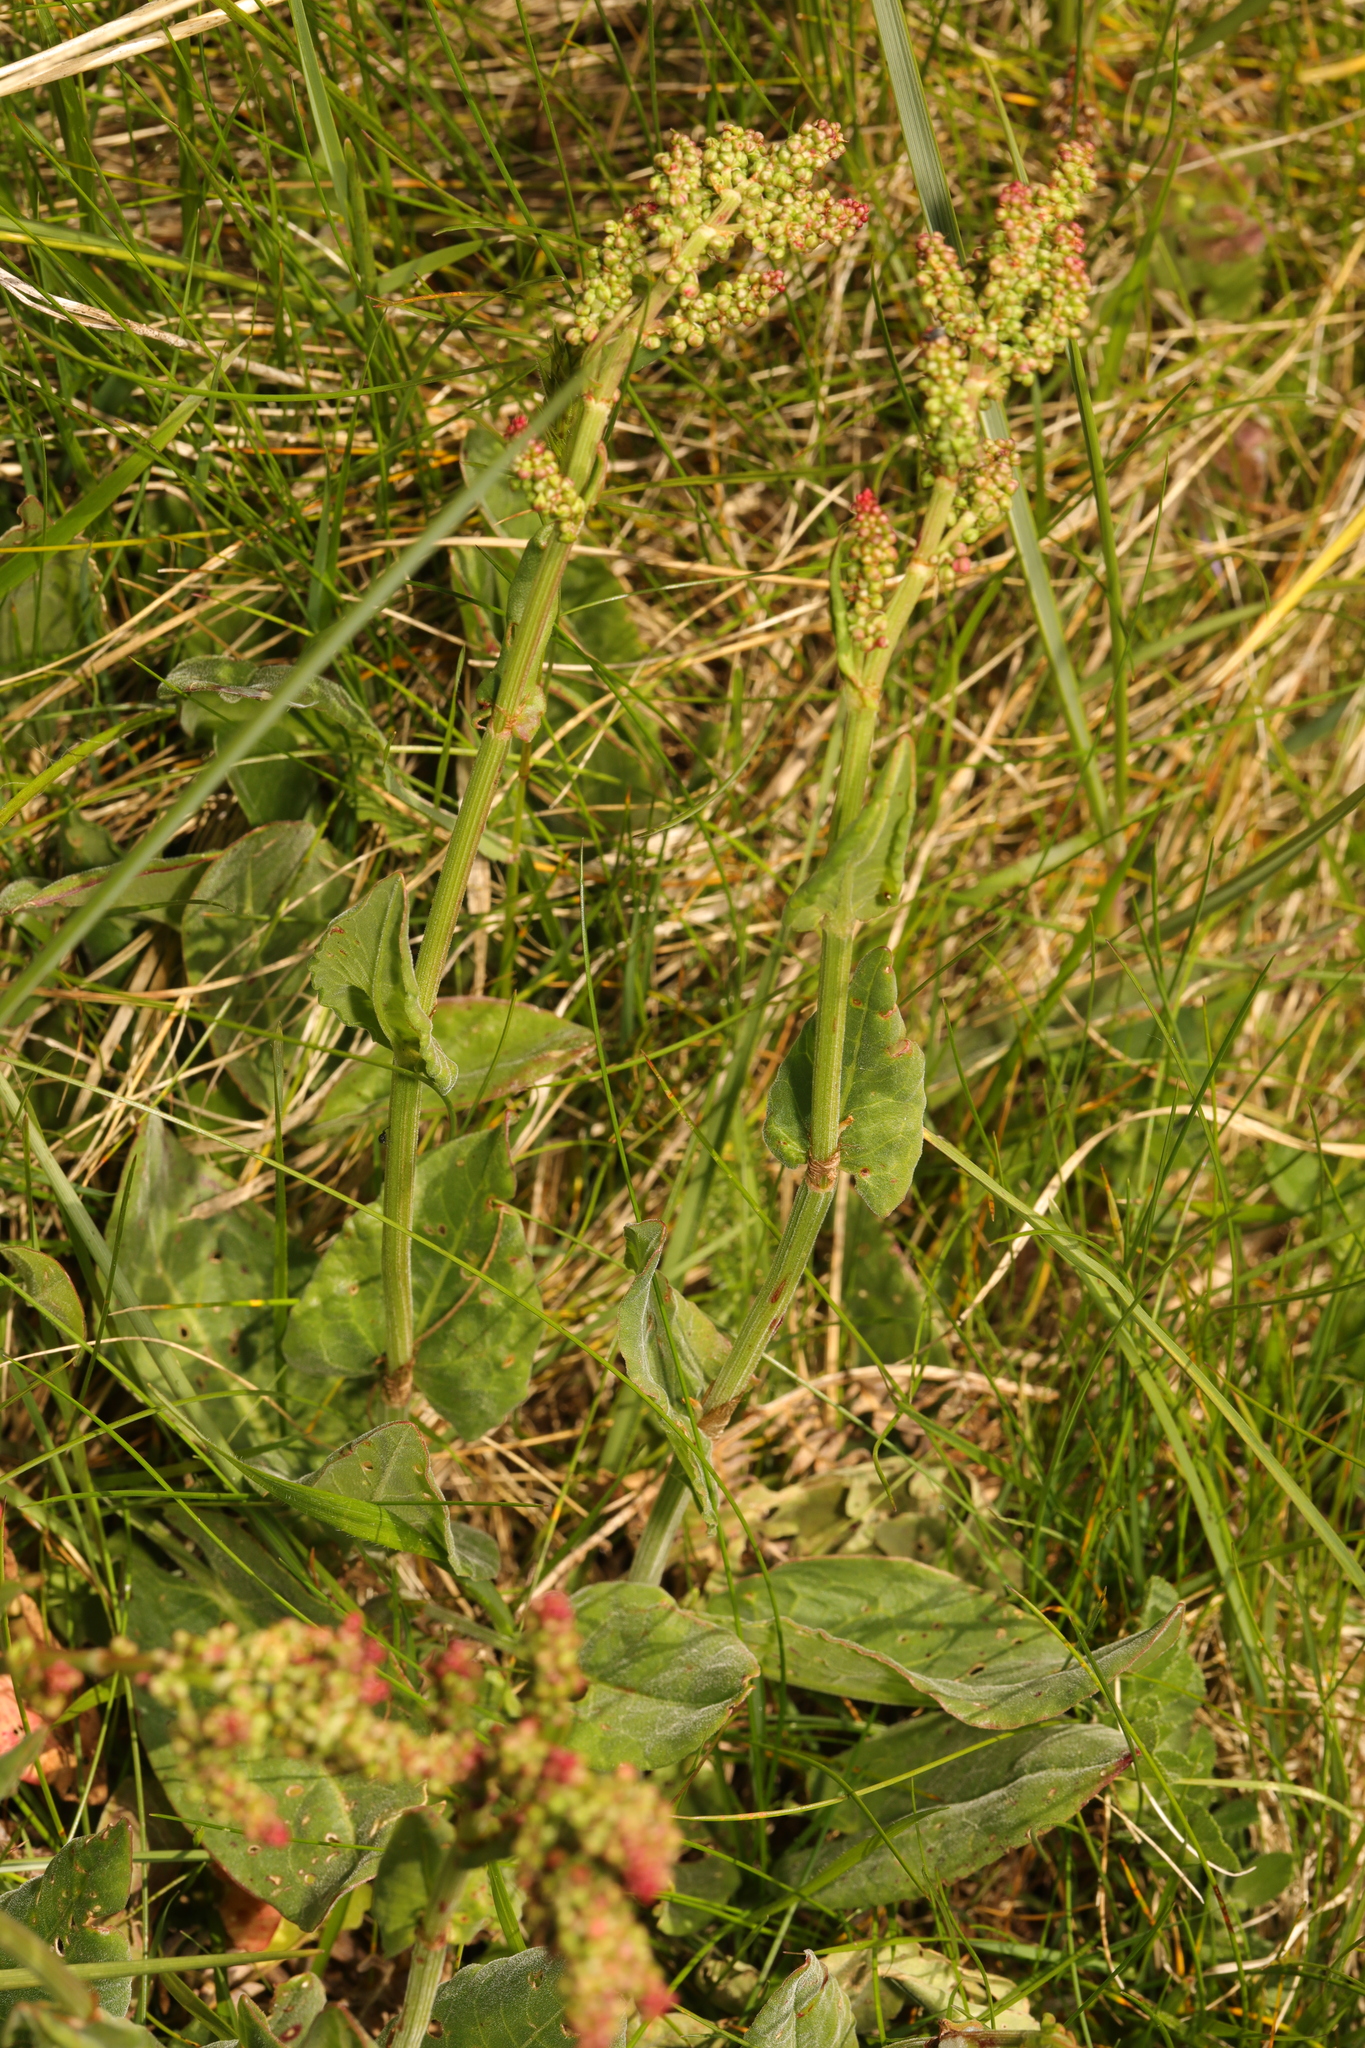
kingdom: Plantae
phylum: Tracheophyta
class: Magnoliopsida
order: Caryophyllales
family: Polygonaceae
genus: Rumex
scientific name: Rumex acetosa
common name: Garden sorrel
